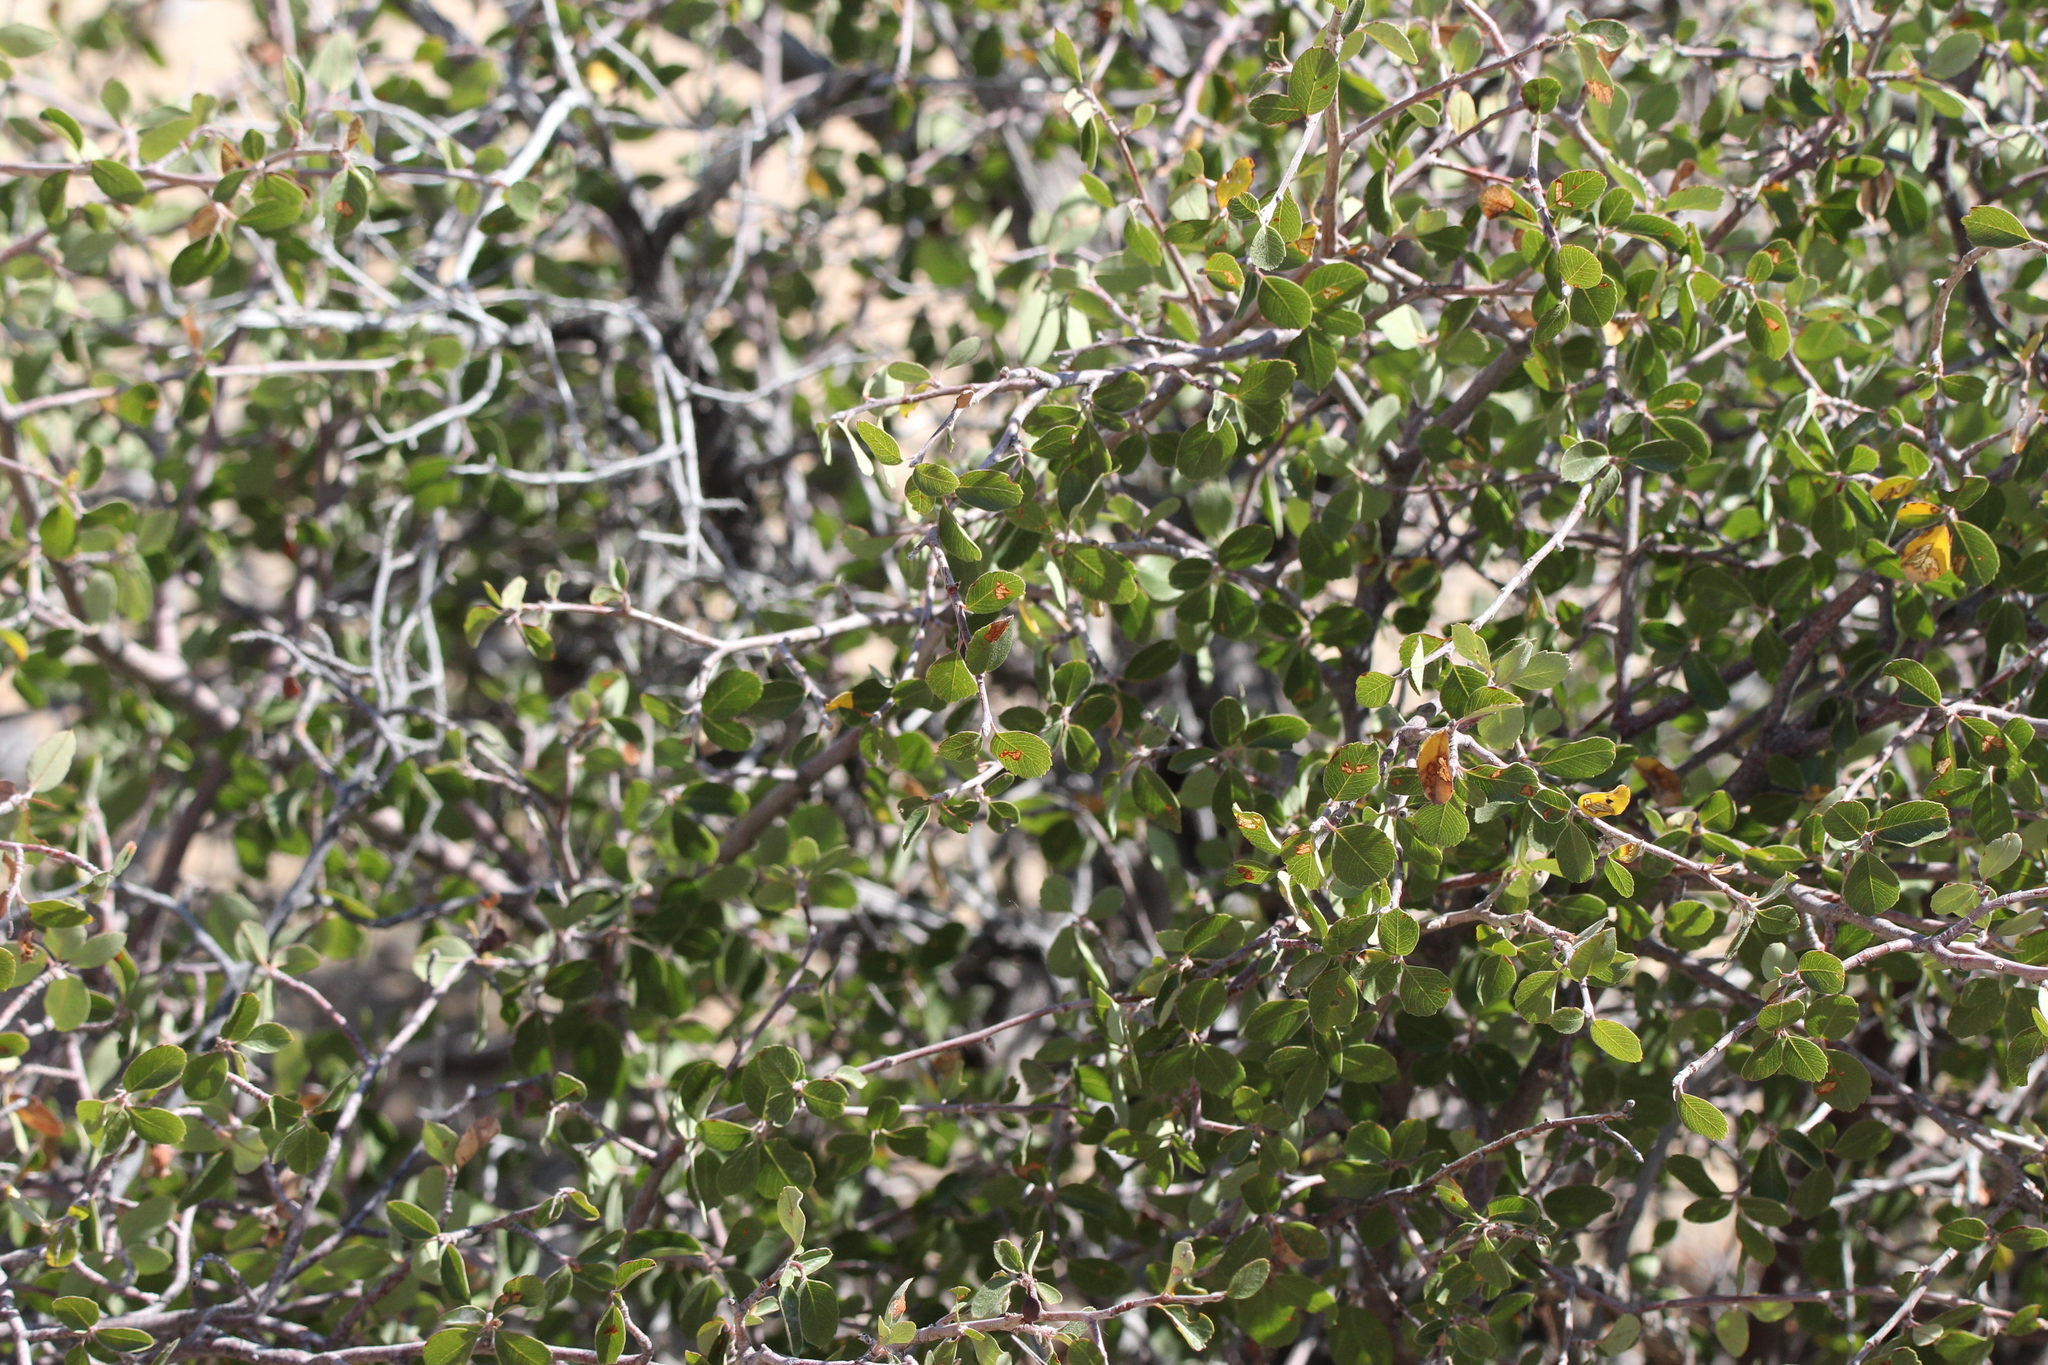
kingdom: Plantae
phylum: Tracheophyta
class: Magnoliopsida
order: Rosales
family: Rosaceae
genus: Amelanchier
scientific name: Amelanchier utahensis
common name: Utah serviceberry
